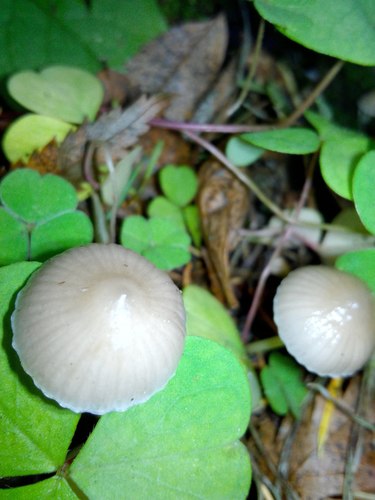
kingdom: Fungi
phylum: Basidiomycota
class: Agaricomycetes
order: Agaricales
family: Mycenaceae
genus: Mycena
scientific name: Mycena galericulata
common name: Bonnet mycena
